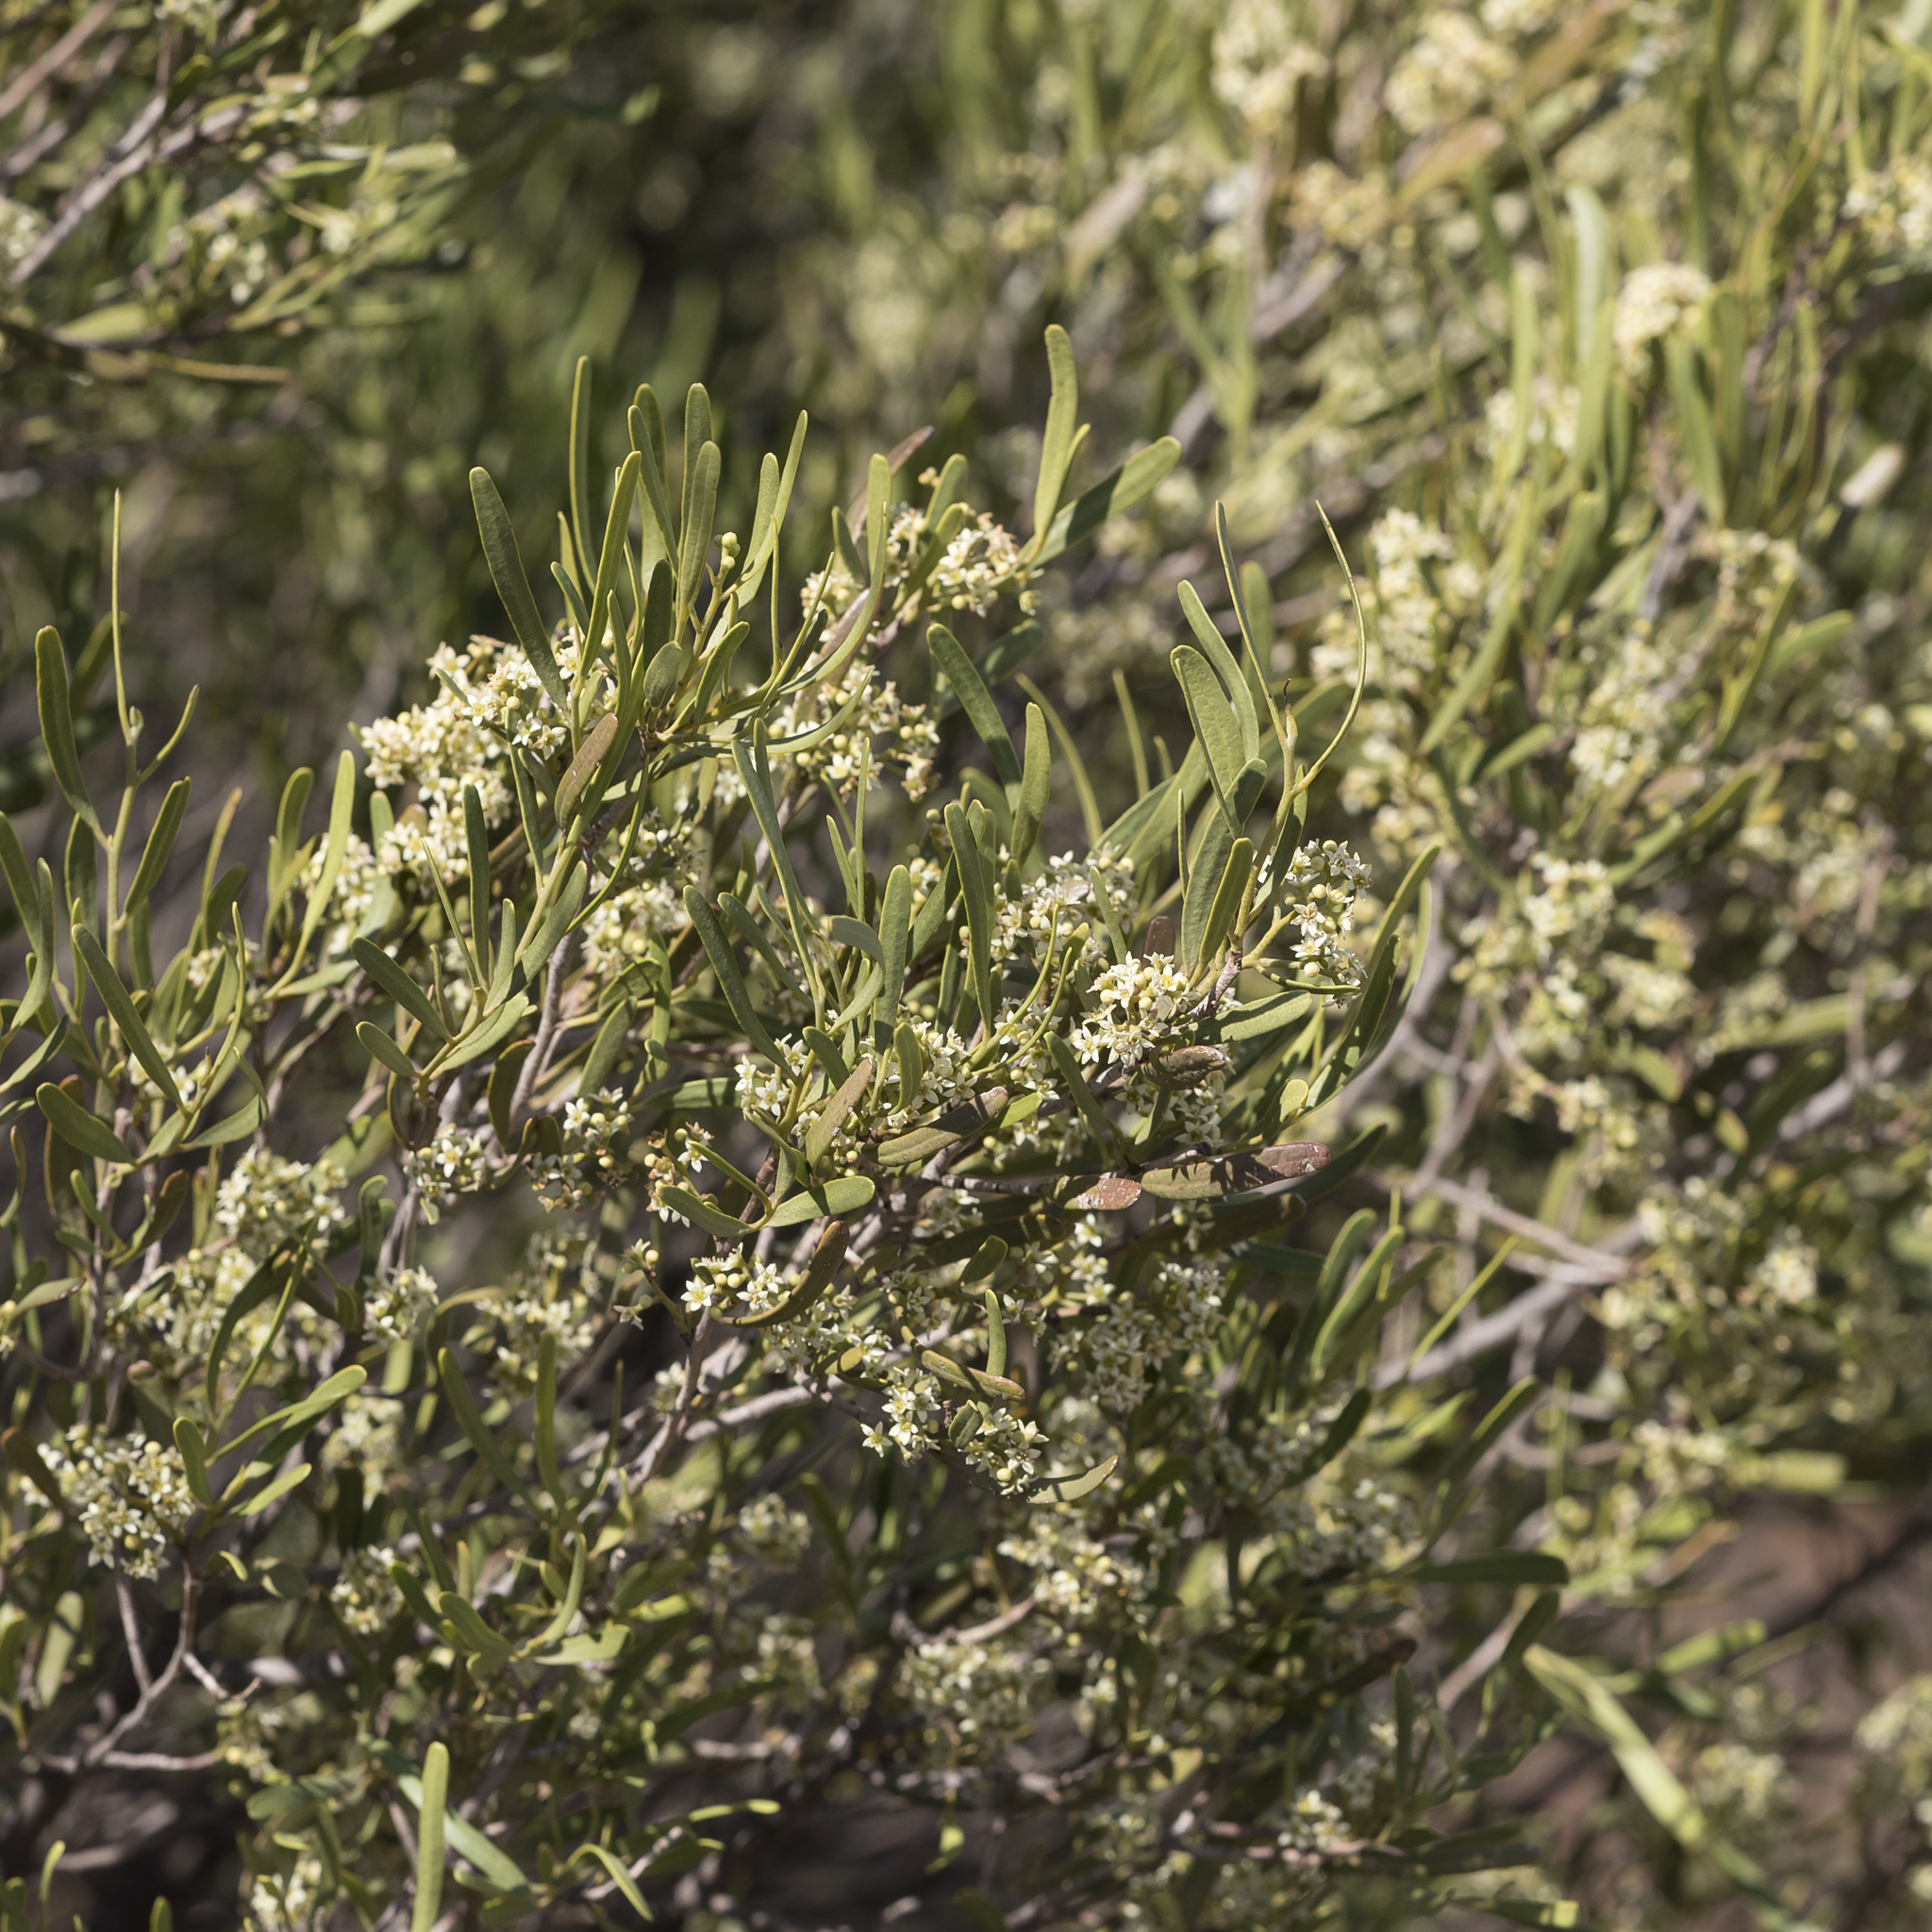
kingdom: Plantae
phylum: Tracheophyta
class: Magnoliopsida
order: Sapindales
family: Rutaceae
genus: Geijera
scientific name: Geijera linearifolia
